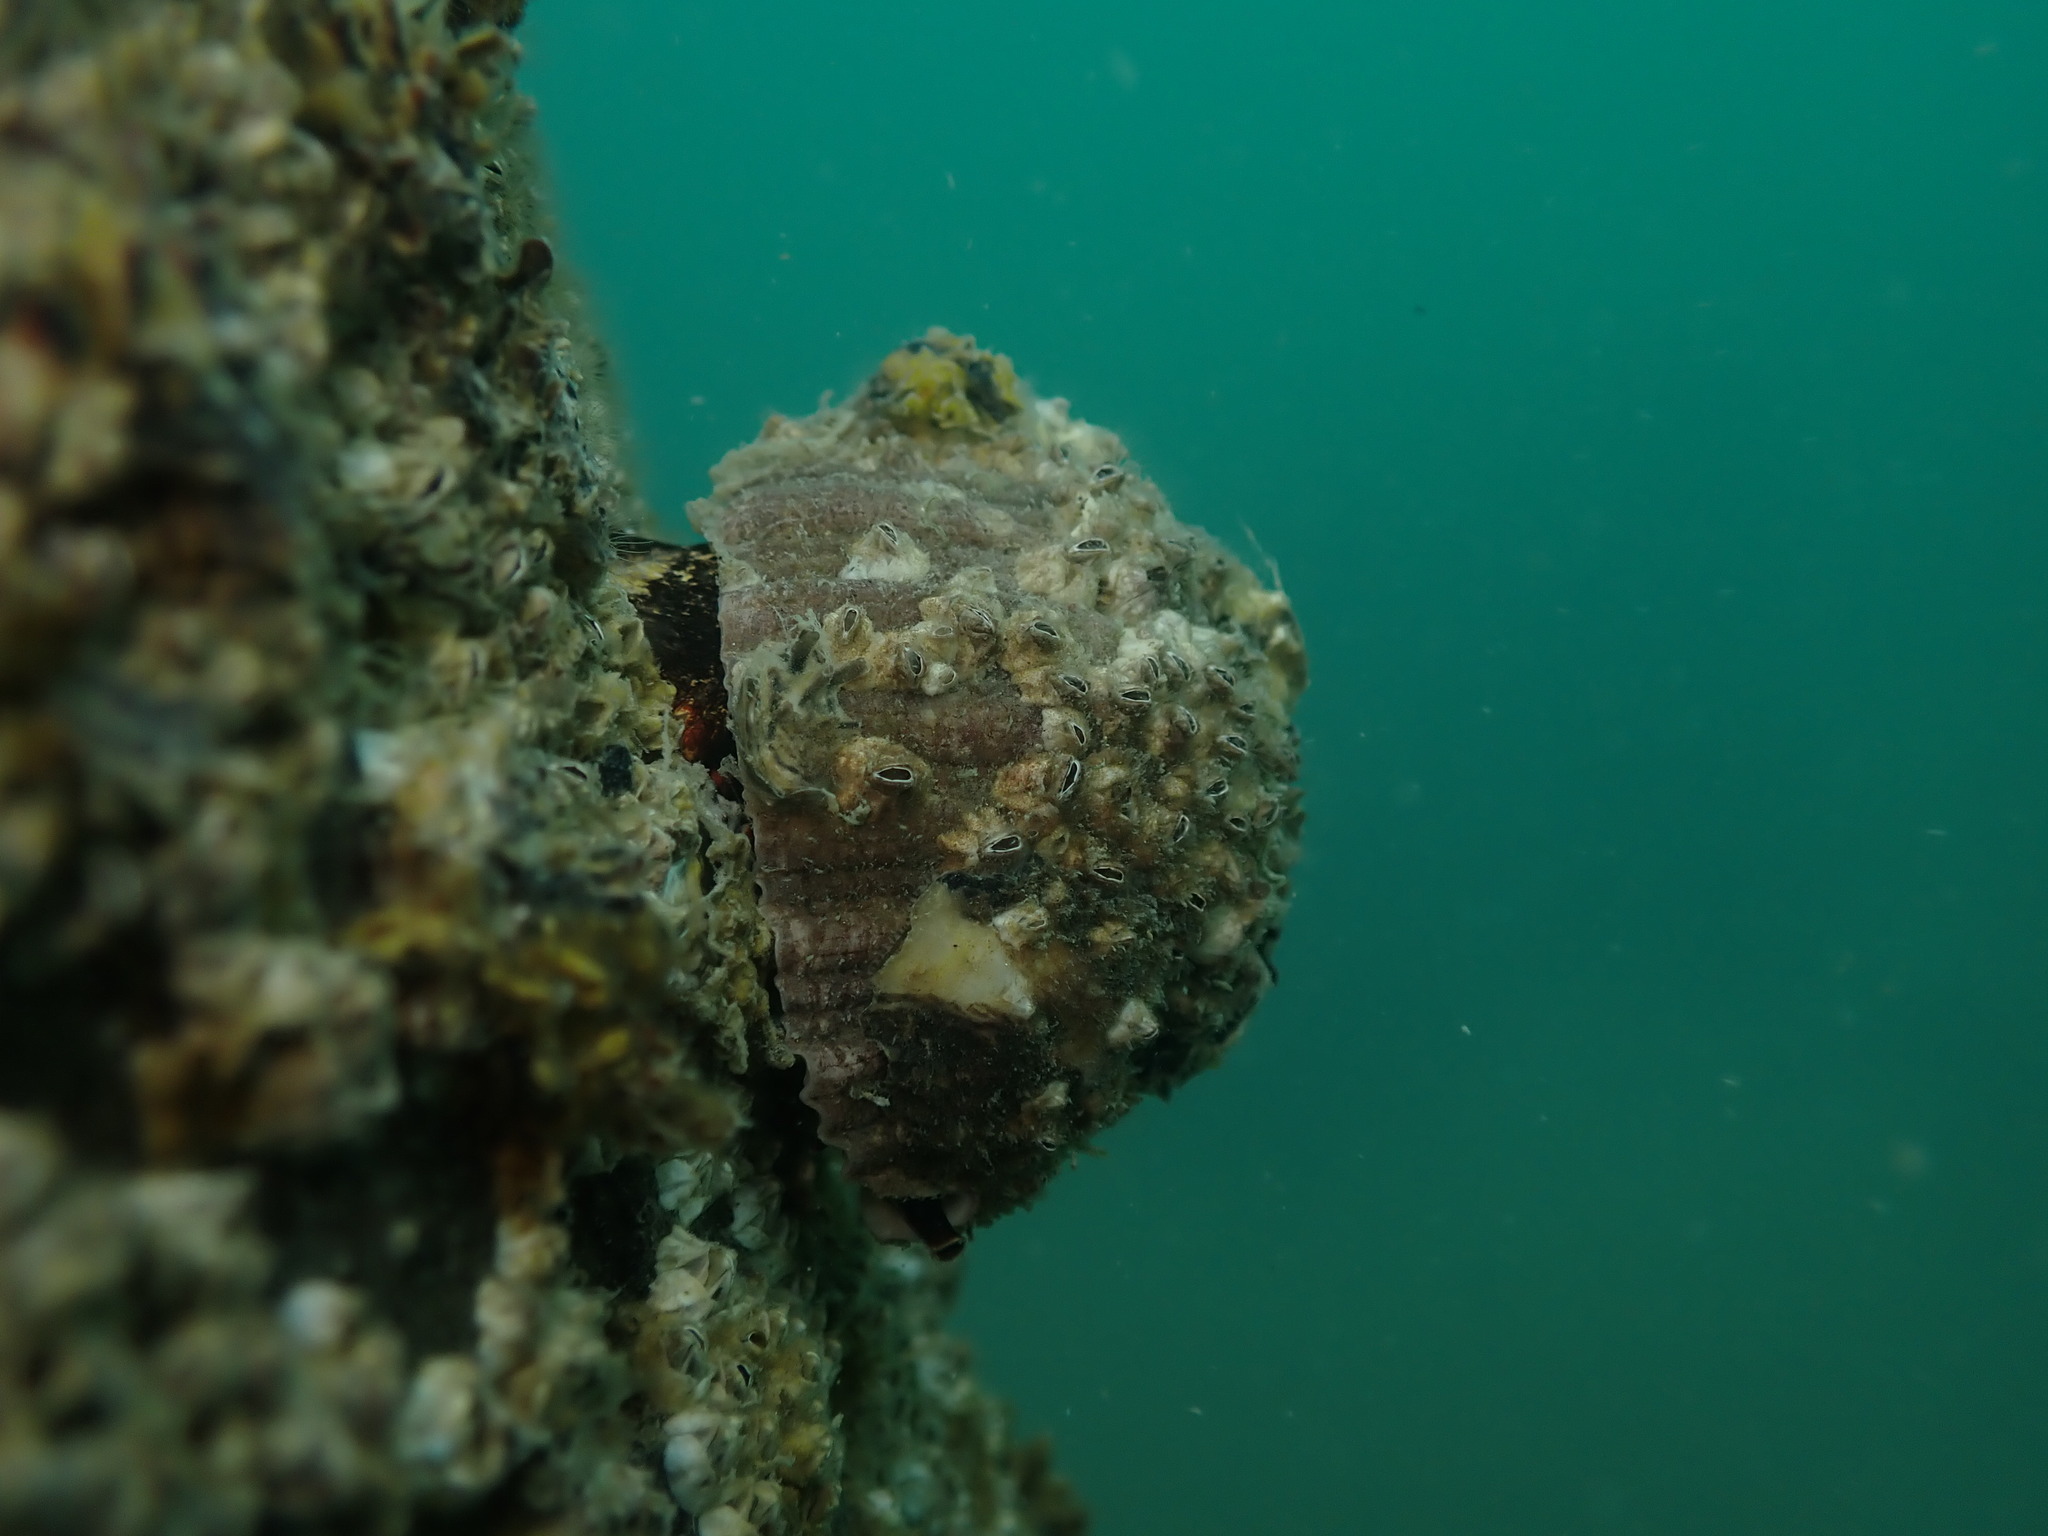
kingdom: Animalia
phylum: Mollusca
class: Gastropoda
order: Neogastropoda
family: Muricidae
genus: Dicathais
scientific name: Dicathais orbita
